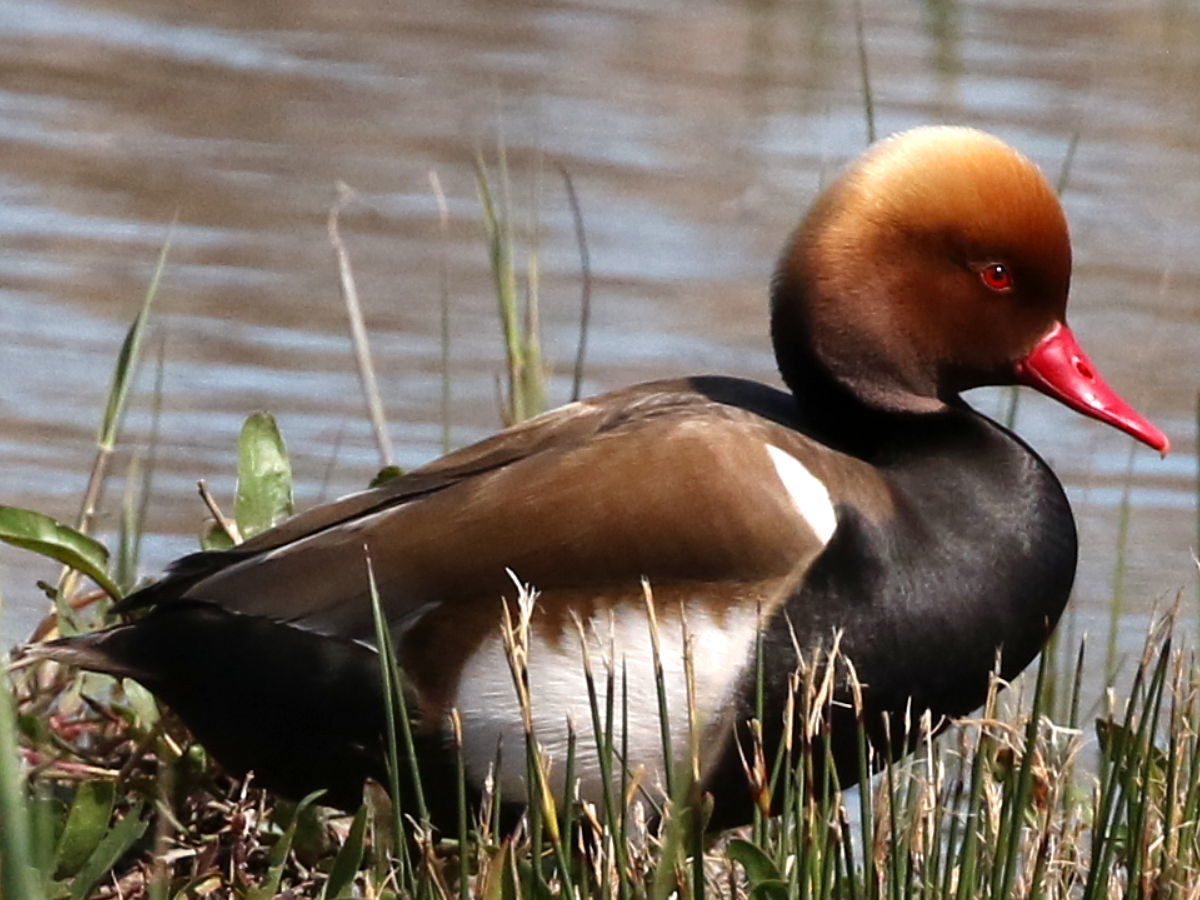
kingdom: Animalia
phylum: Chordata
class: Aves
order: Anseriformes
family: Anatidae
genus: Netta
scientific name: Netta rufina
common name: Red-crested pochard
